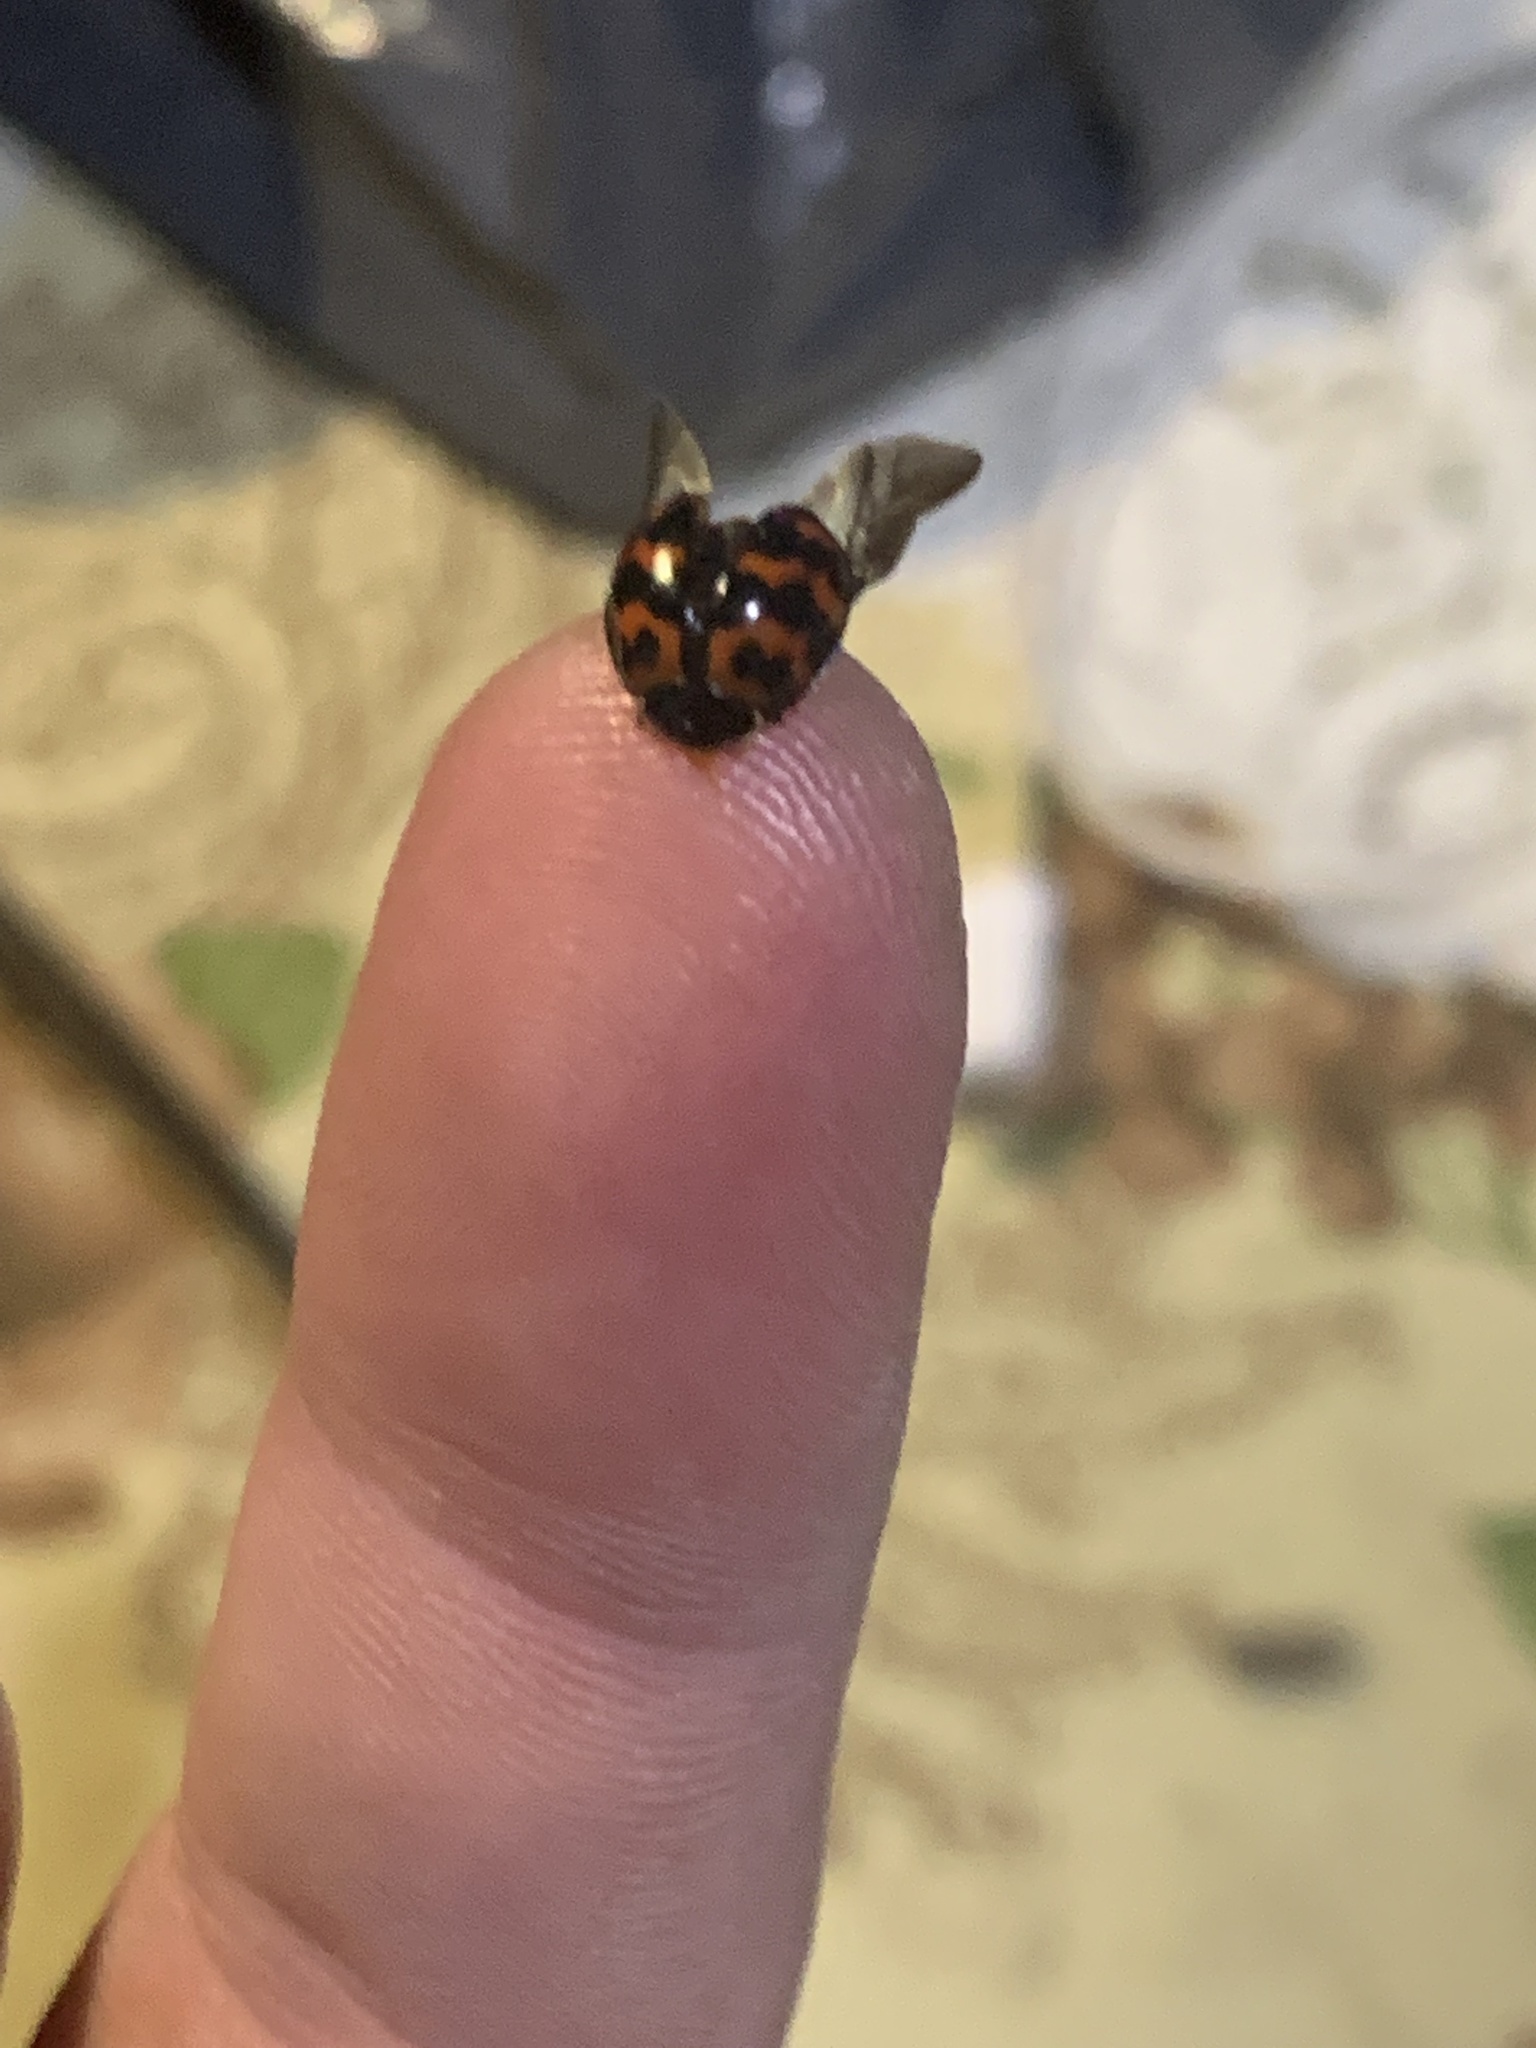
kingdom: Animalia
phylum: Arthropoda
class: Insecta
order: Coleoptera
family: Coccinellidae
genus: Harmonia
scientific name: Harmonia axyridis
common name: Harlequin ladybird
